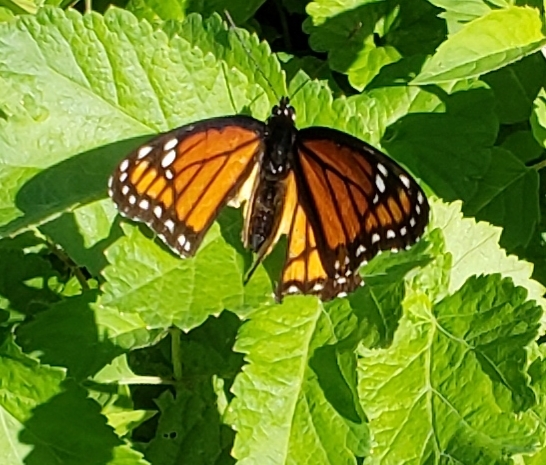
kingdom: Animalia
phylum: Arthropoda
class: Insecta
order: Lepidoptera
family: Nymphalidae
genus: Limenitis
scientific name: Limenitis archippus
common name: Viceroy
